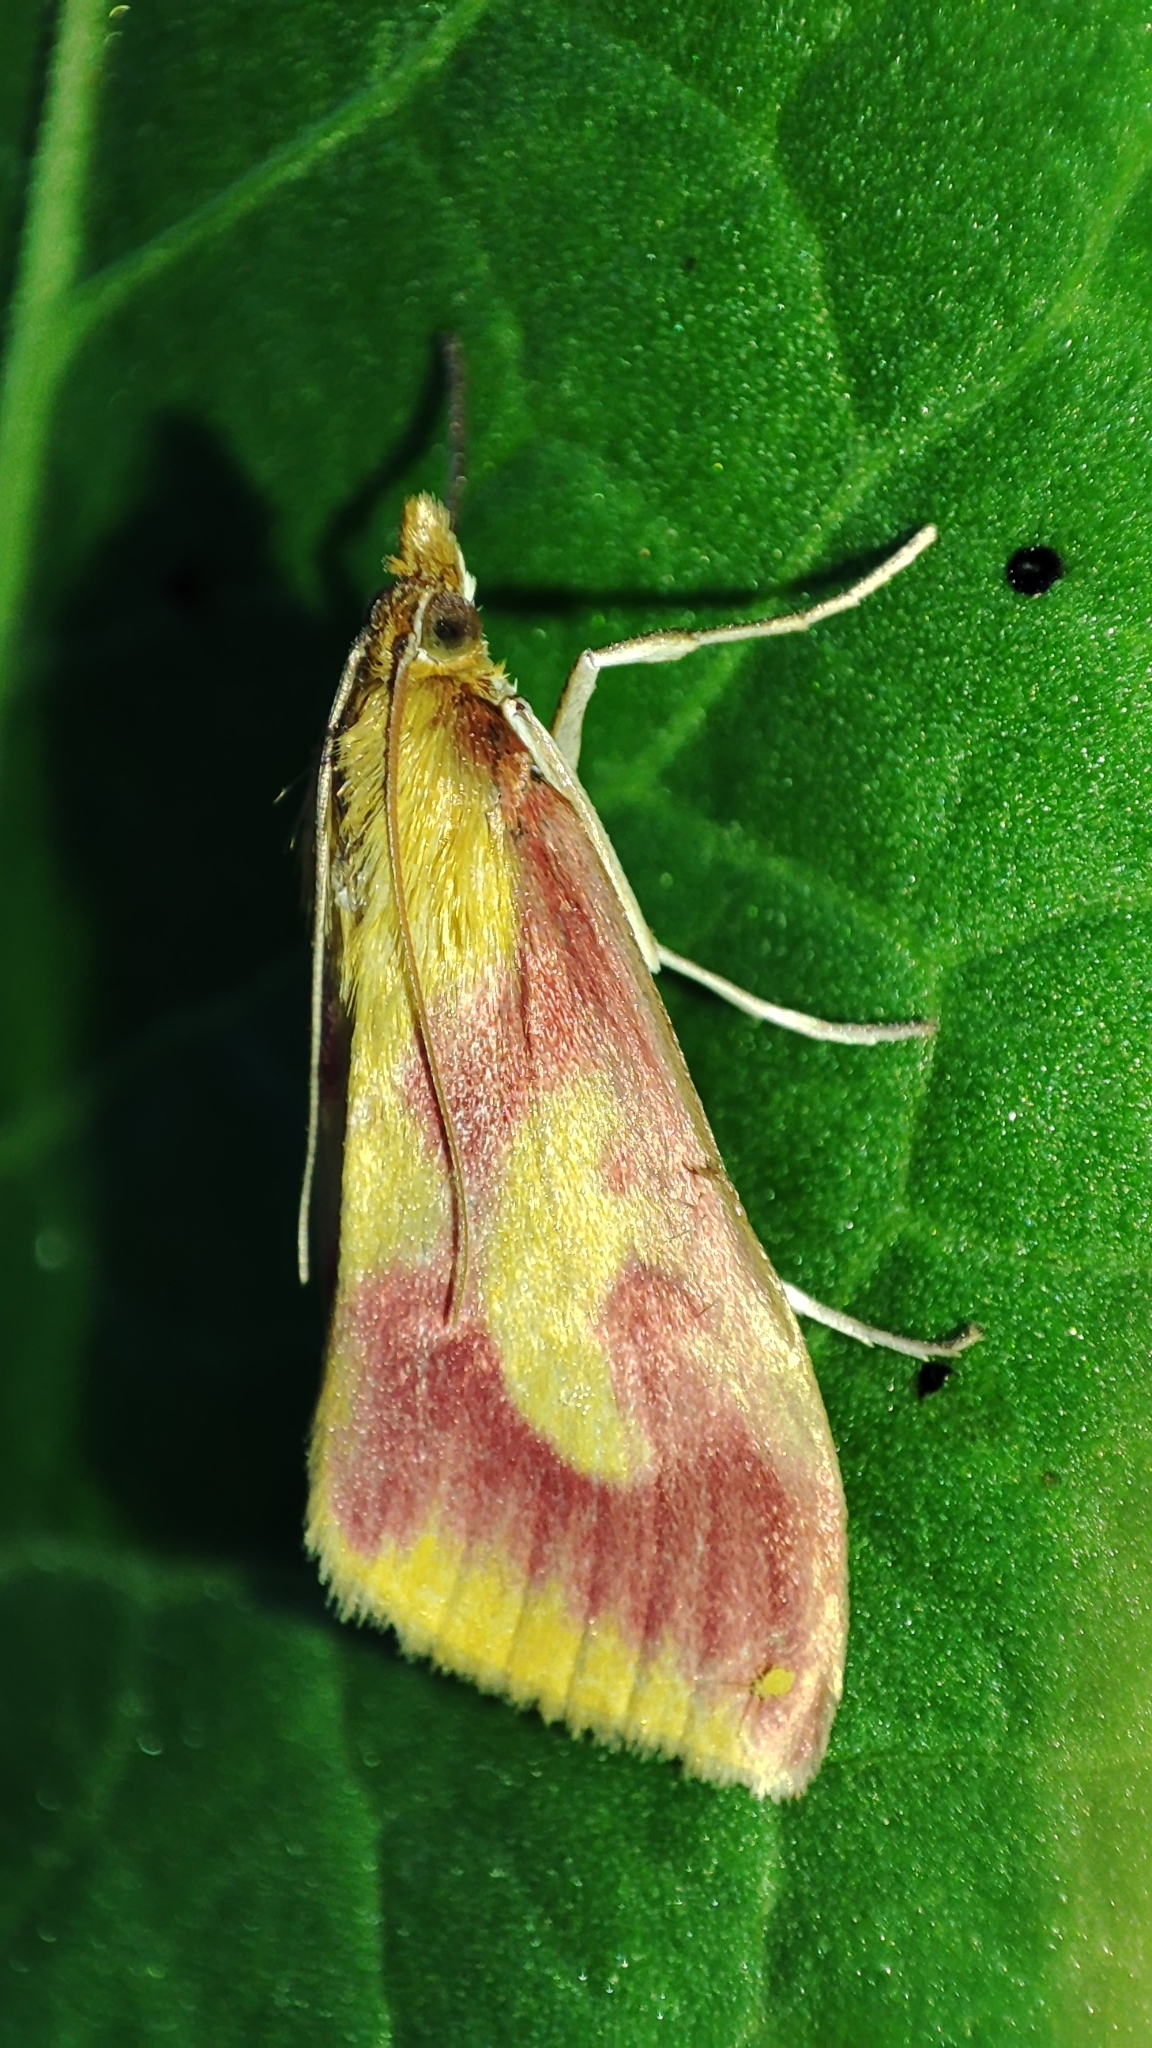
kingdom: Animalia
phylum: Arthropoda
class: Insecta
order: Lepidoptera
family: Crambidae
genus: Ostrinia
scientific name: Ostrinia palustralis
